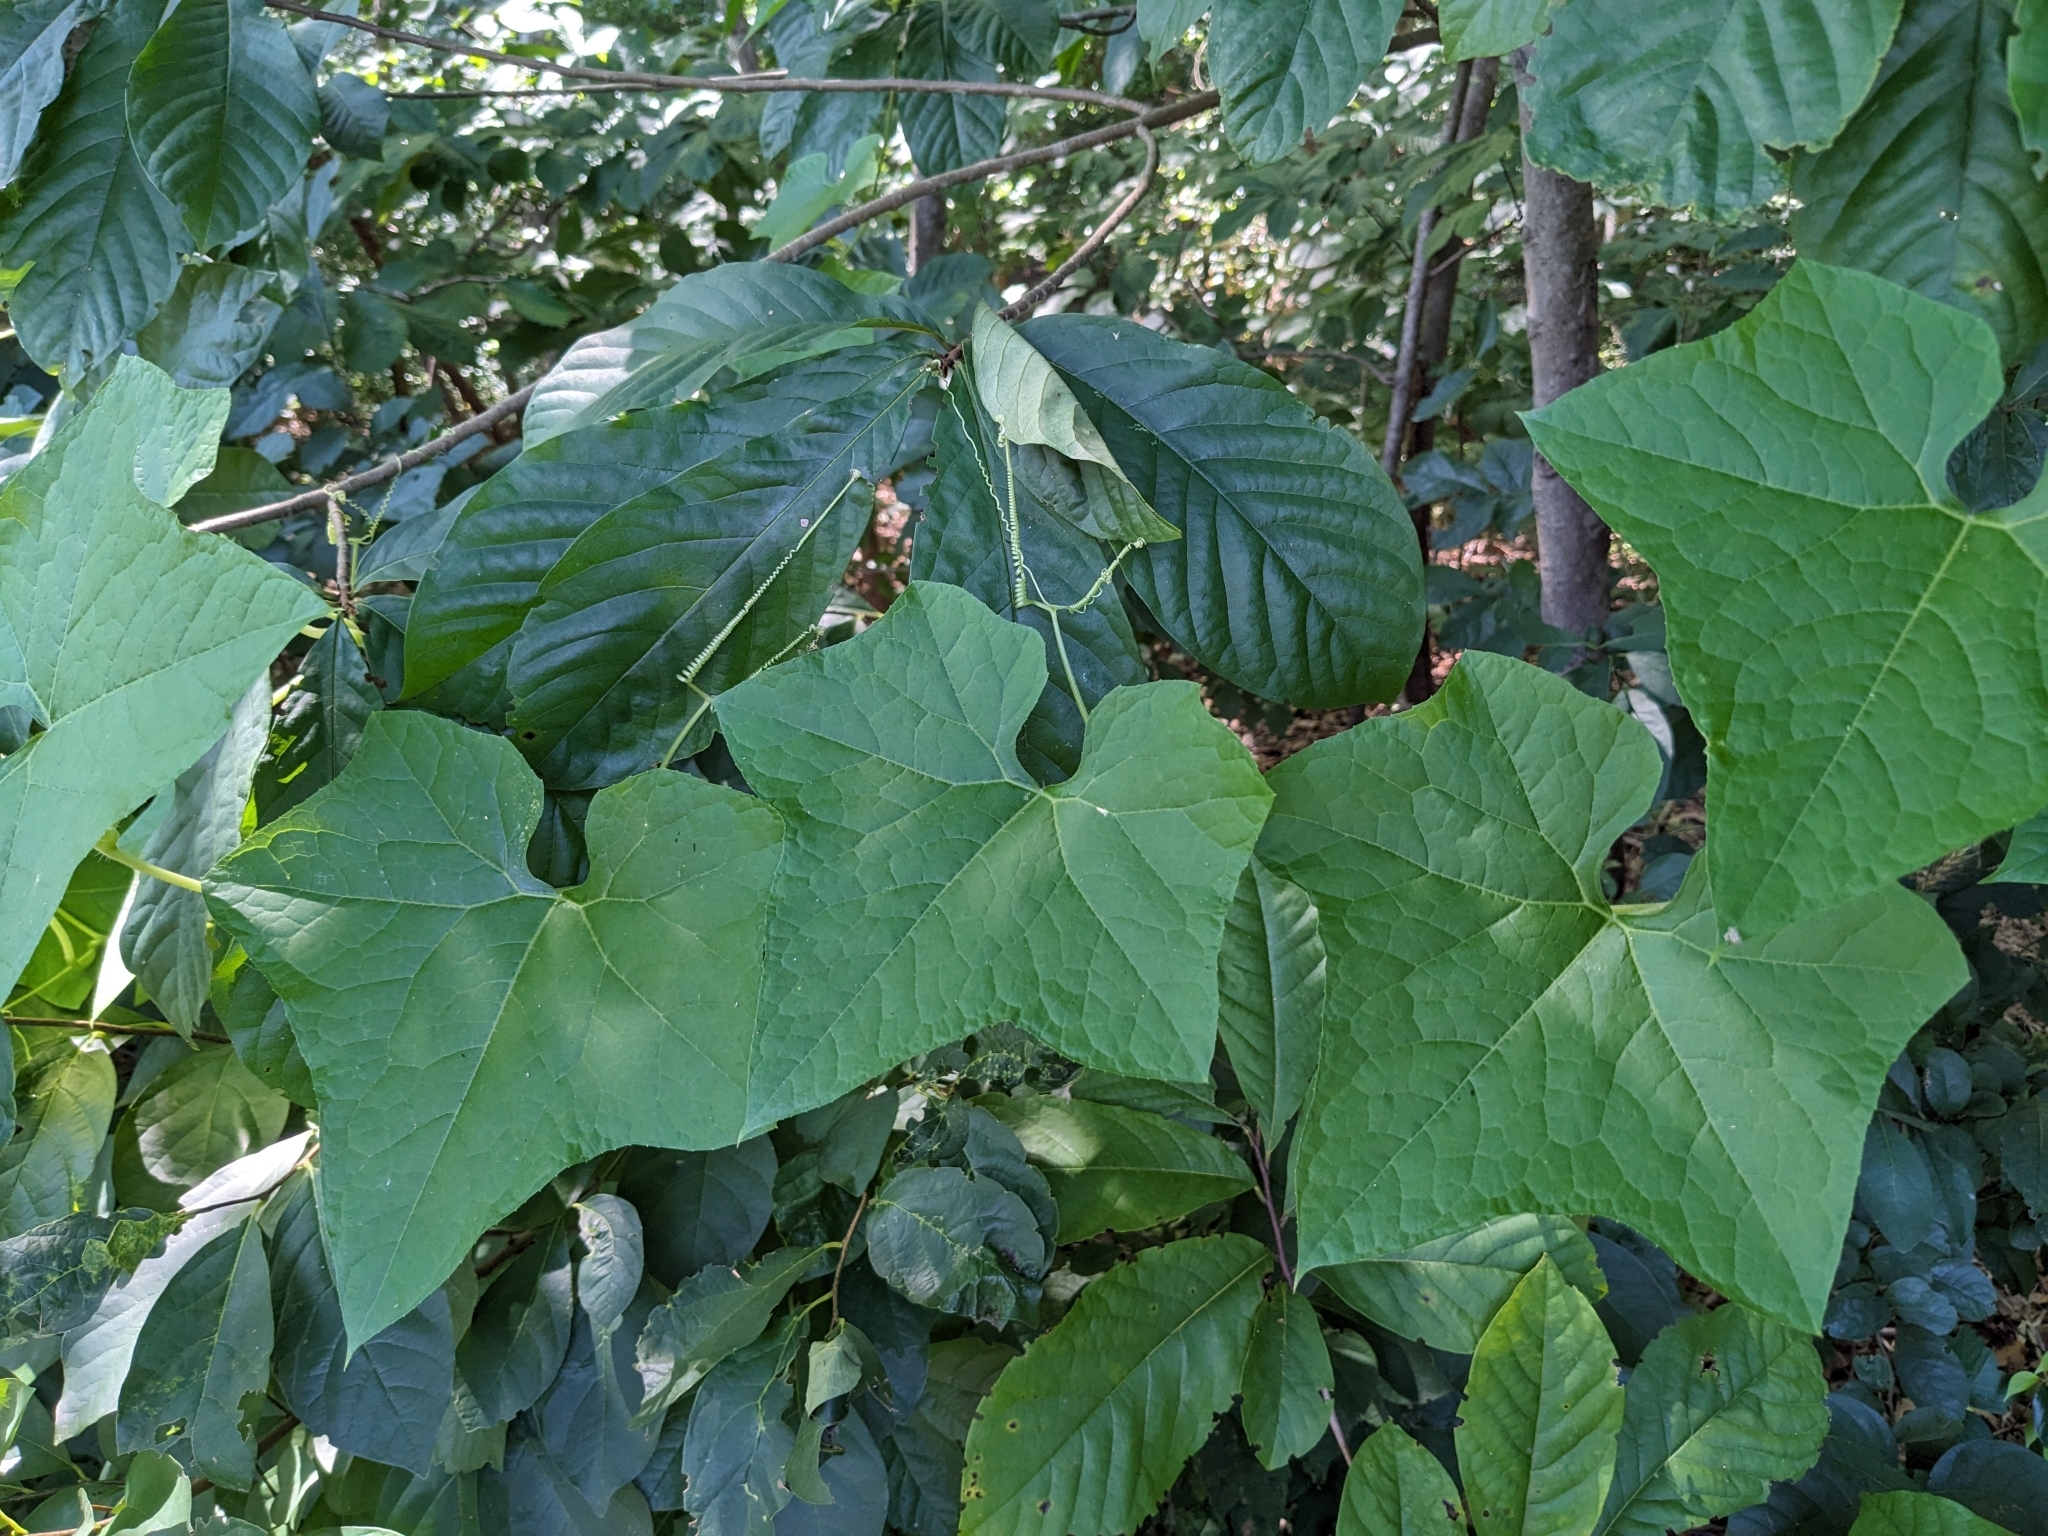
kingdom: Plantae
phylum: Tracheophyta
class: Magnoliopsida
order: Cucurbitales
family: Cucurbitaceae
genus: Sicyos
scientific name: Sicyos angulatus
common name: Angled burr cucumber
